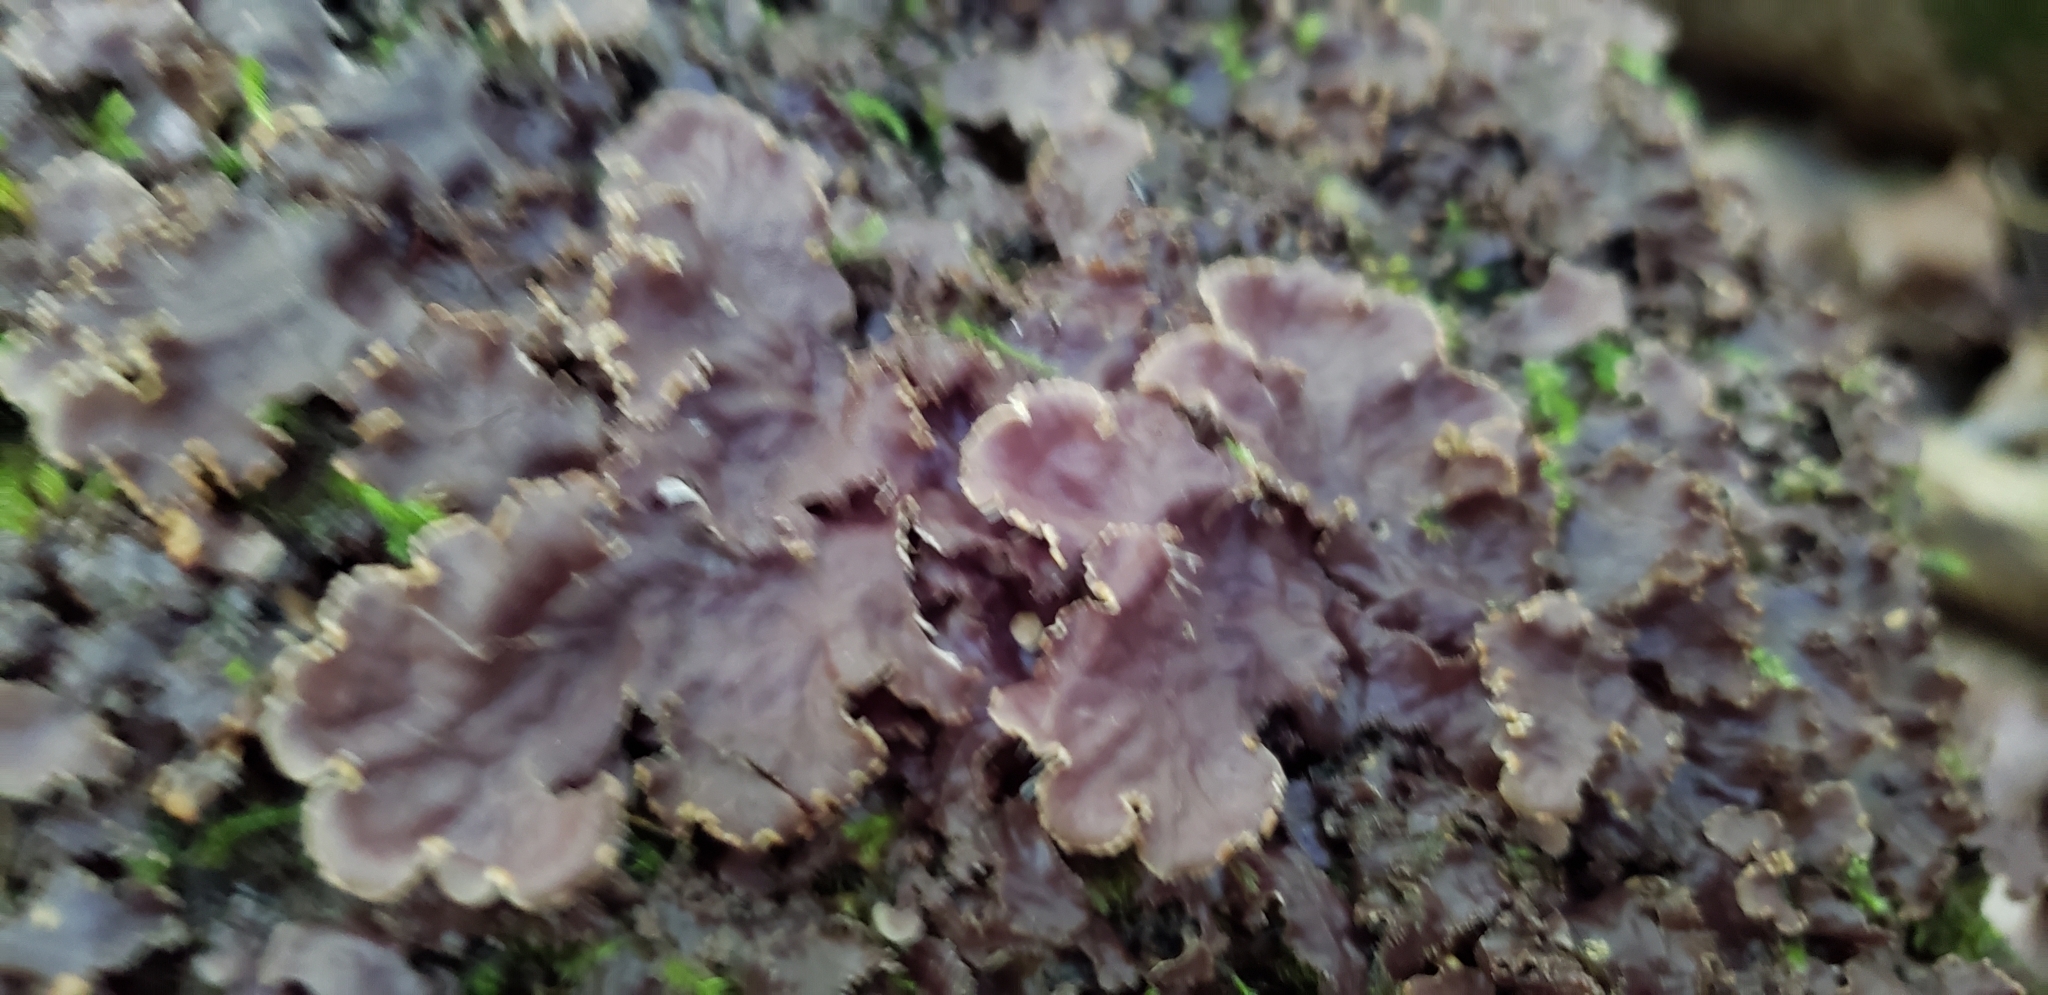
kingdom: Fungi
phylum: Ascomycota
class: Lecanoromycetes
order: Peltigerales
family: Peltigeraceae
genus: Peltigera
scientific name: Peltigera praetextata
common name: Scaly dog-lichen
